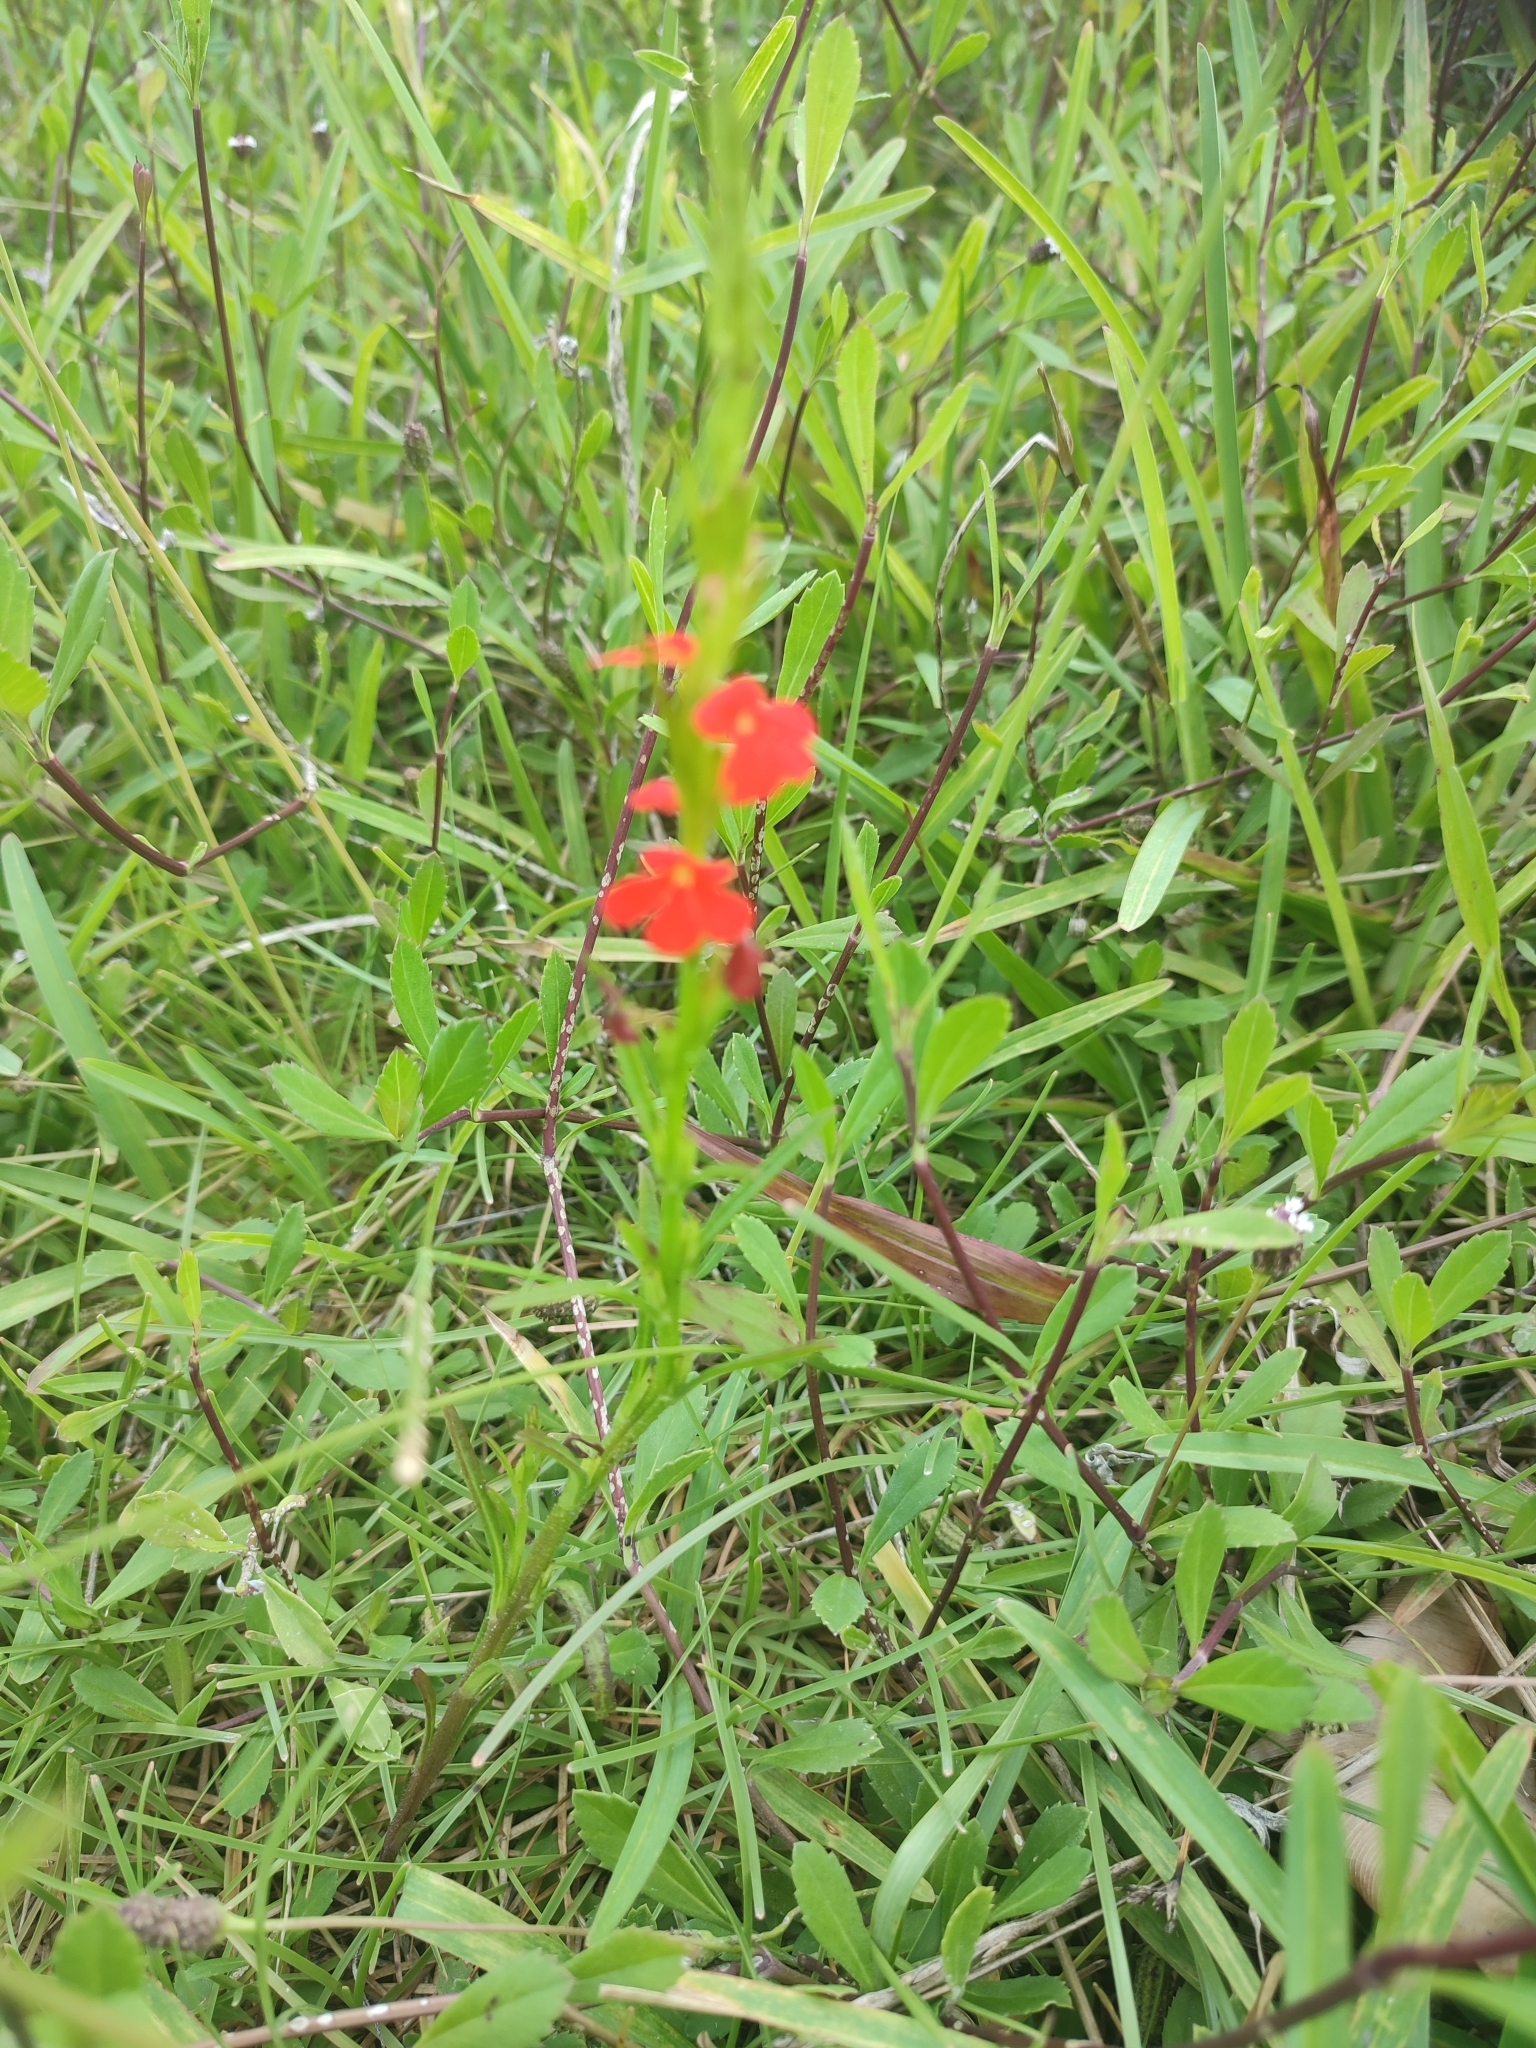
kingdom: Plantae
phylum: Tracheophyta
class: Magnoliopsida
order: Lamiales
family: Orobanchaceae
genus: Striga
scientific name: Striga asiatica
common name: Asiatic witchweed
